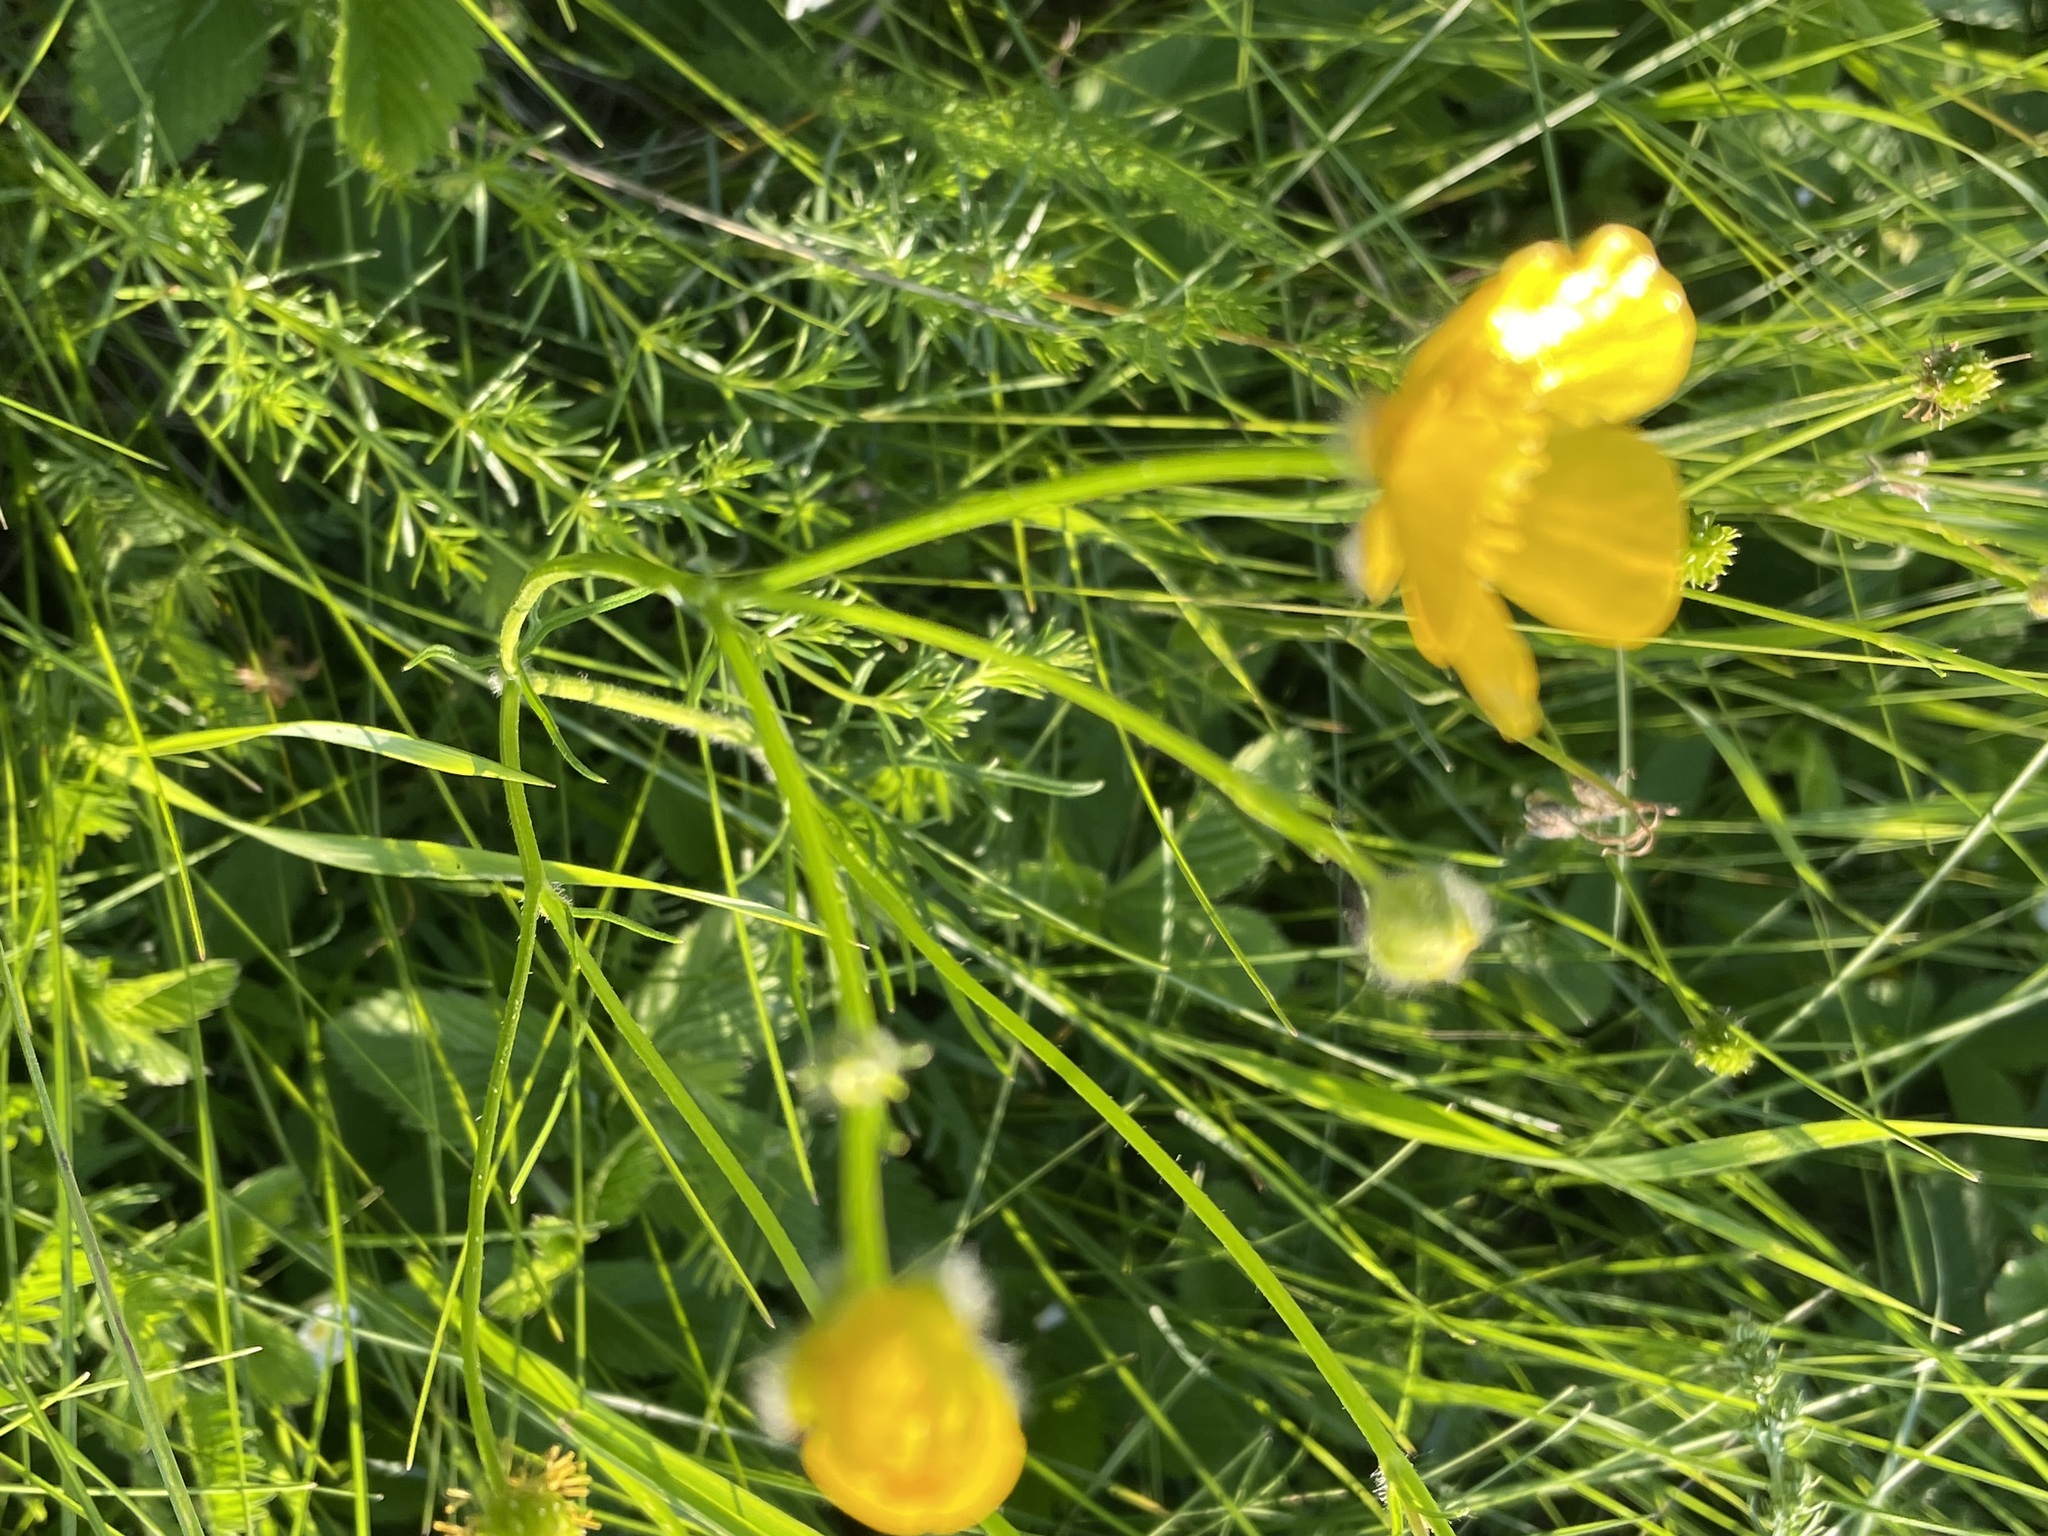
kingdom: Plantae
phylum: Tracheophyta
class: Magnoliopsida
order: Ranunculales
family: Ranunculaceae
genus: Ranunculus
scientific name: Ranunculus polyanthemos
